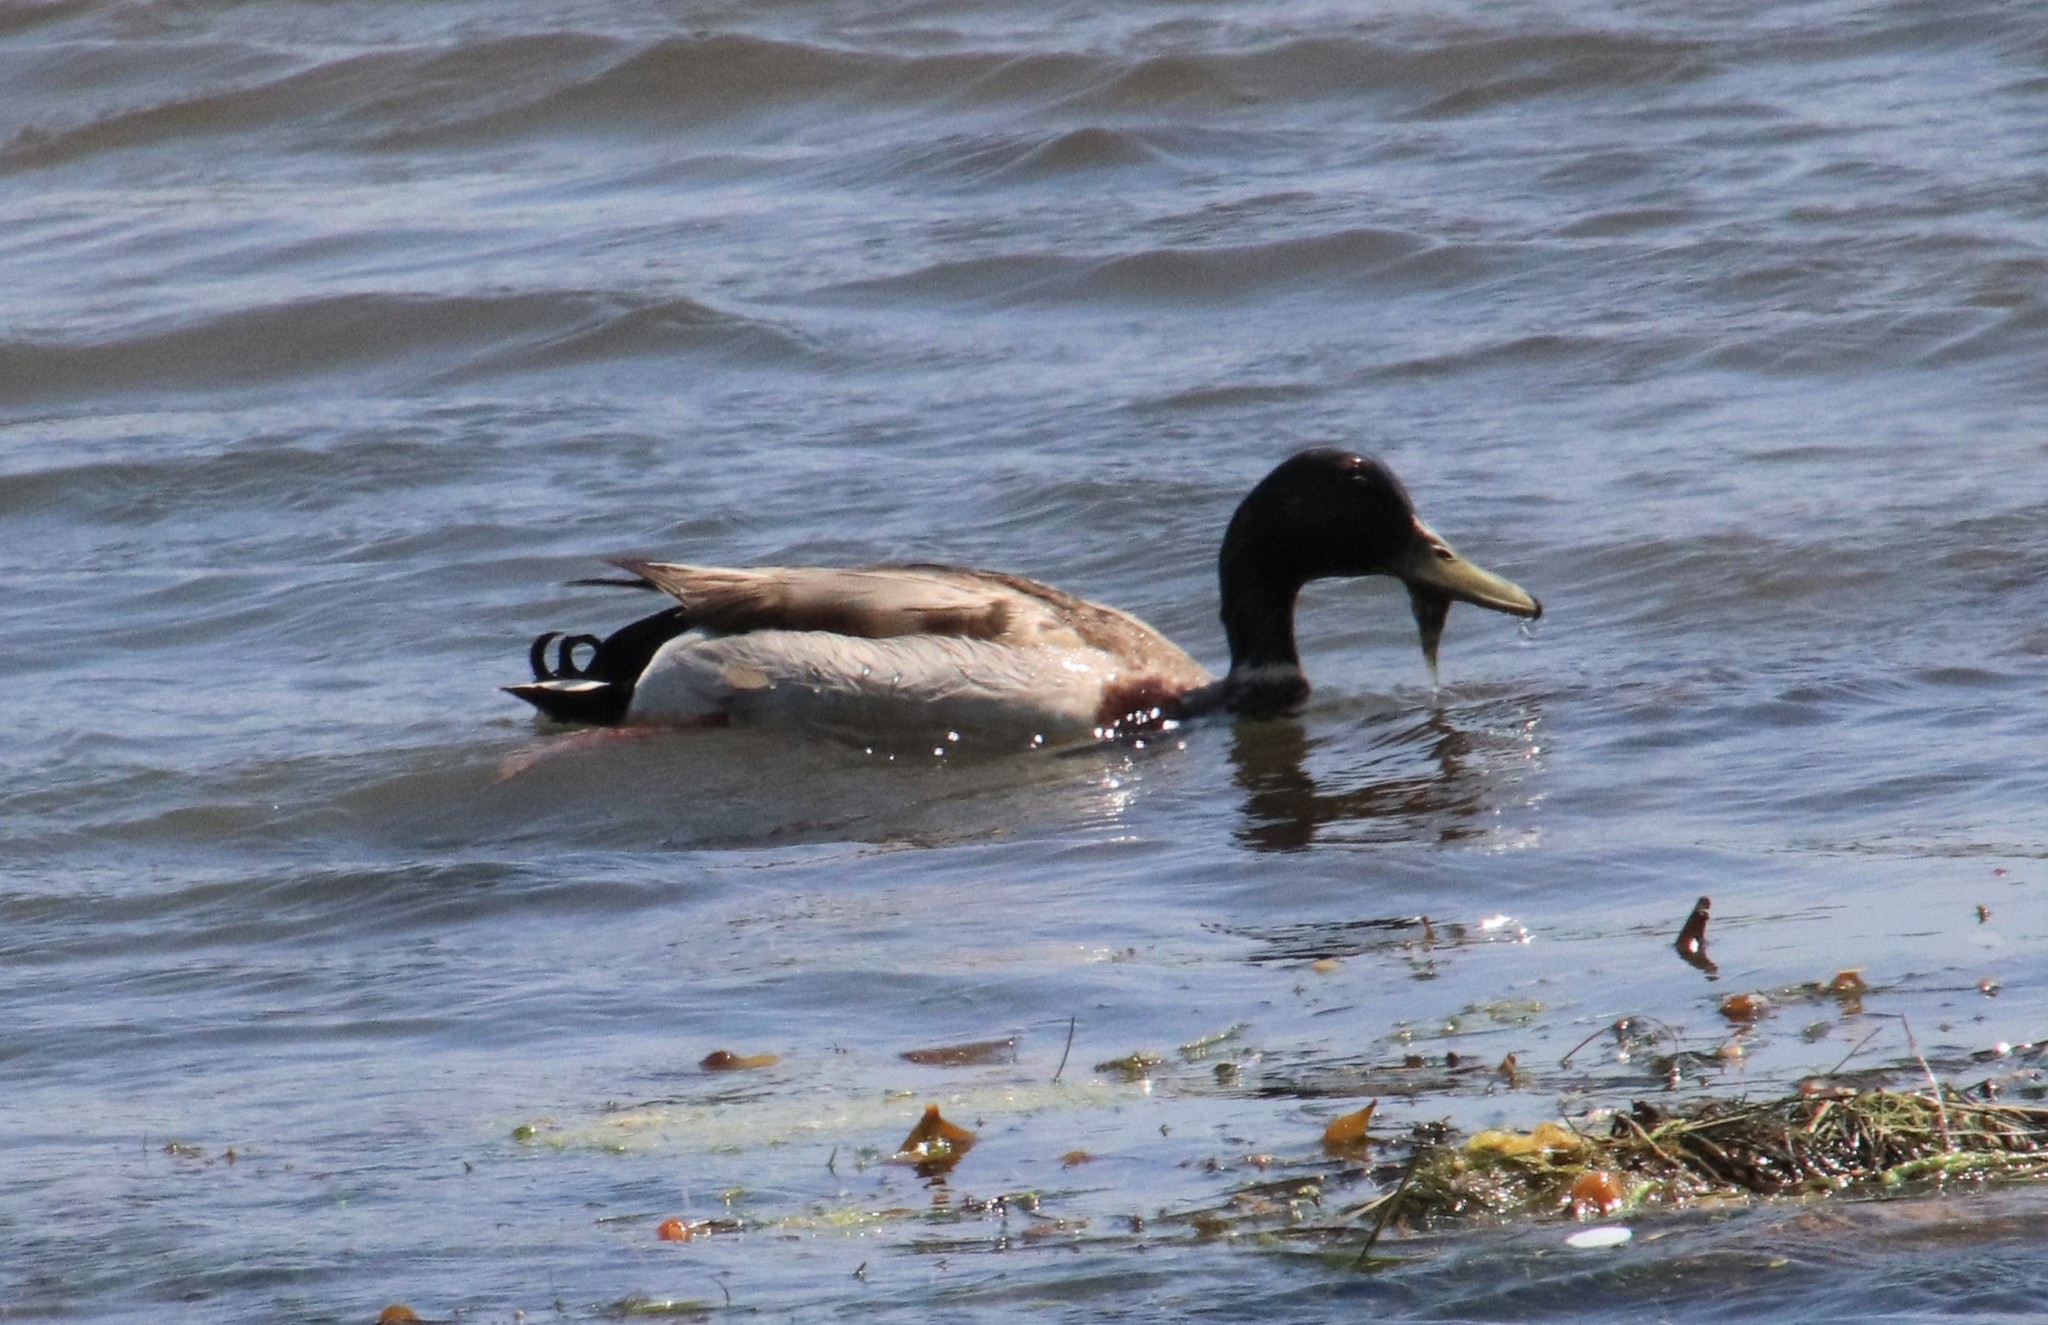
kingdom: Animalia
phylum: Chordata
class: Aves
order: Anseriformes
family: Anatidae
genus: Anas
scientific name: Anas platyrhynchos
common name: Mallard
